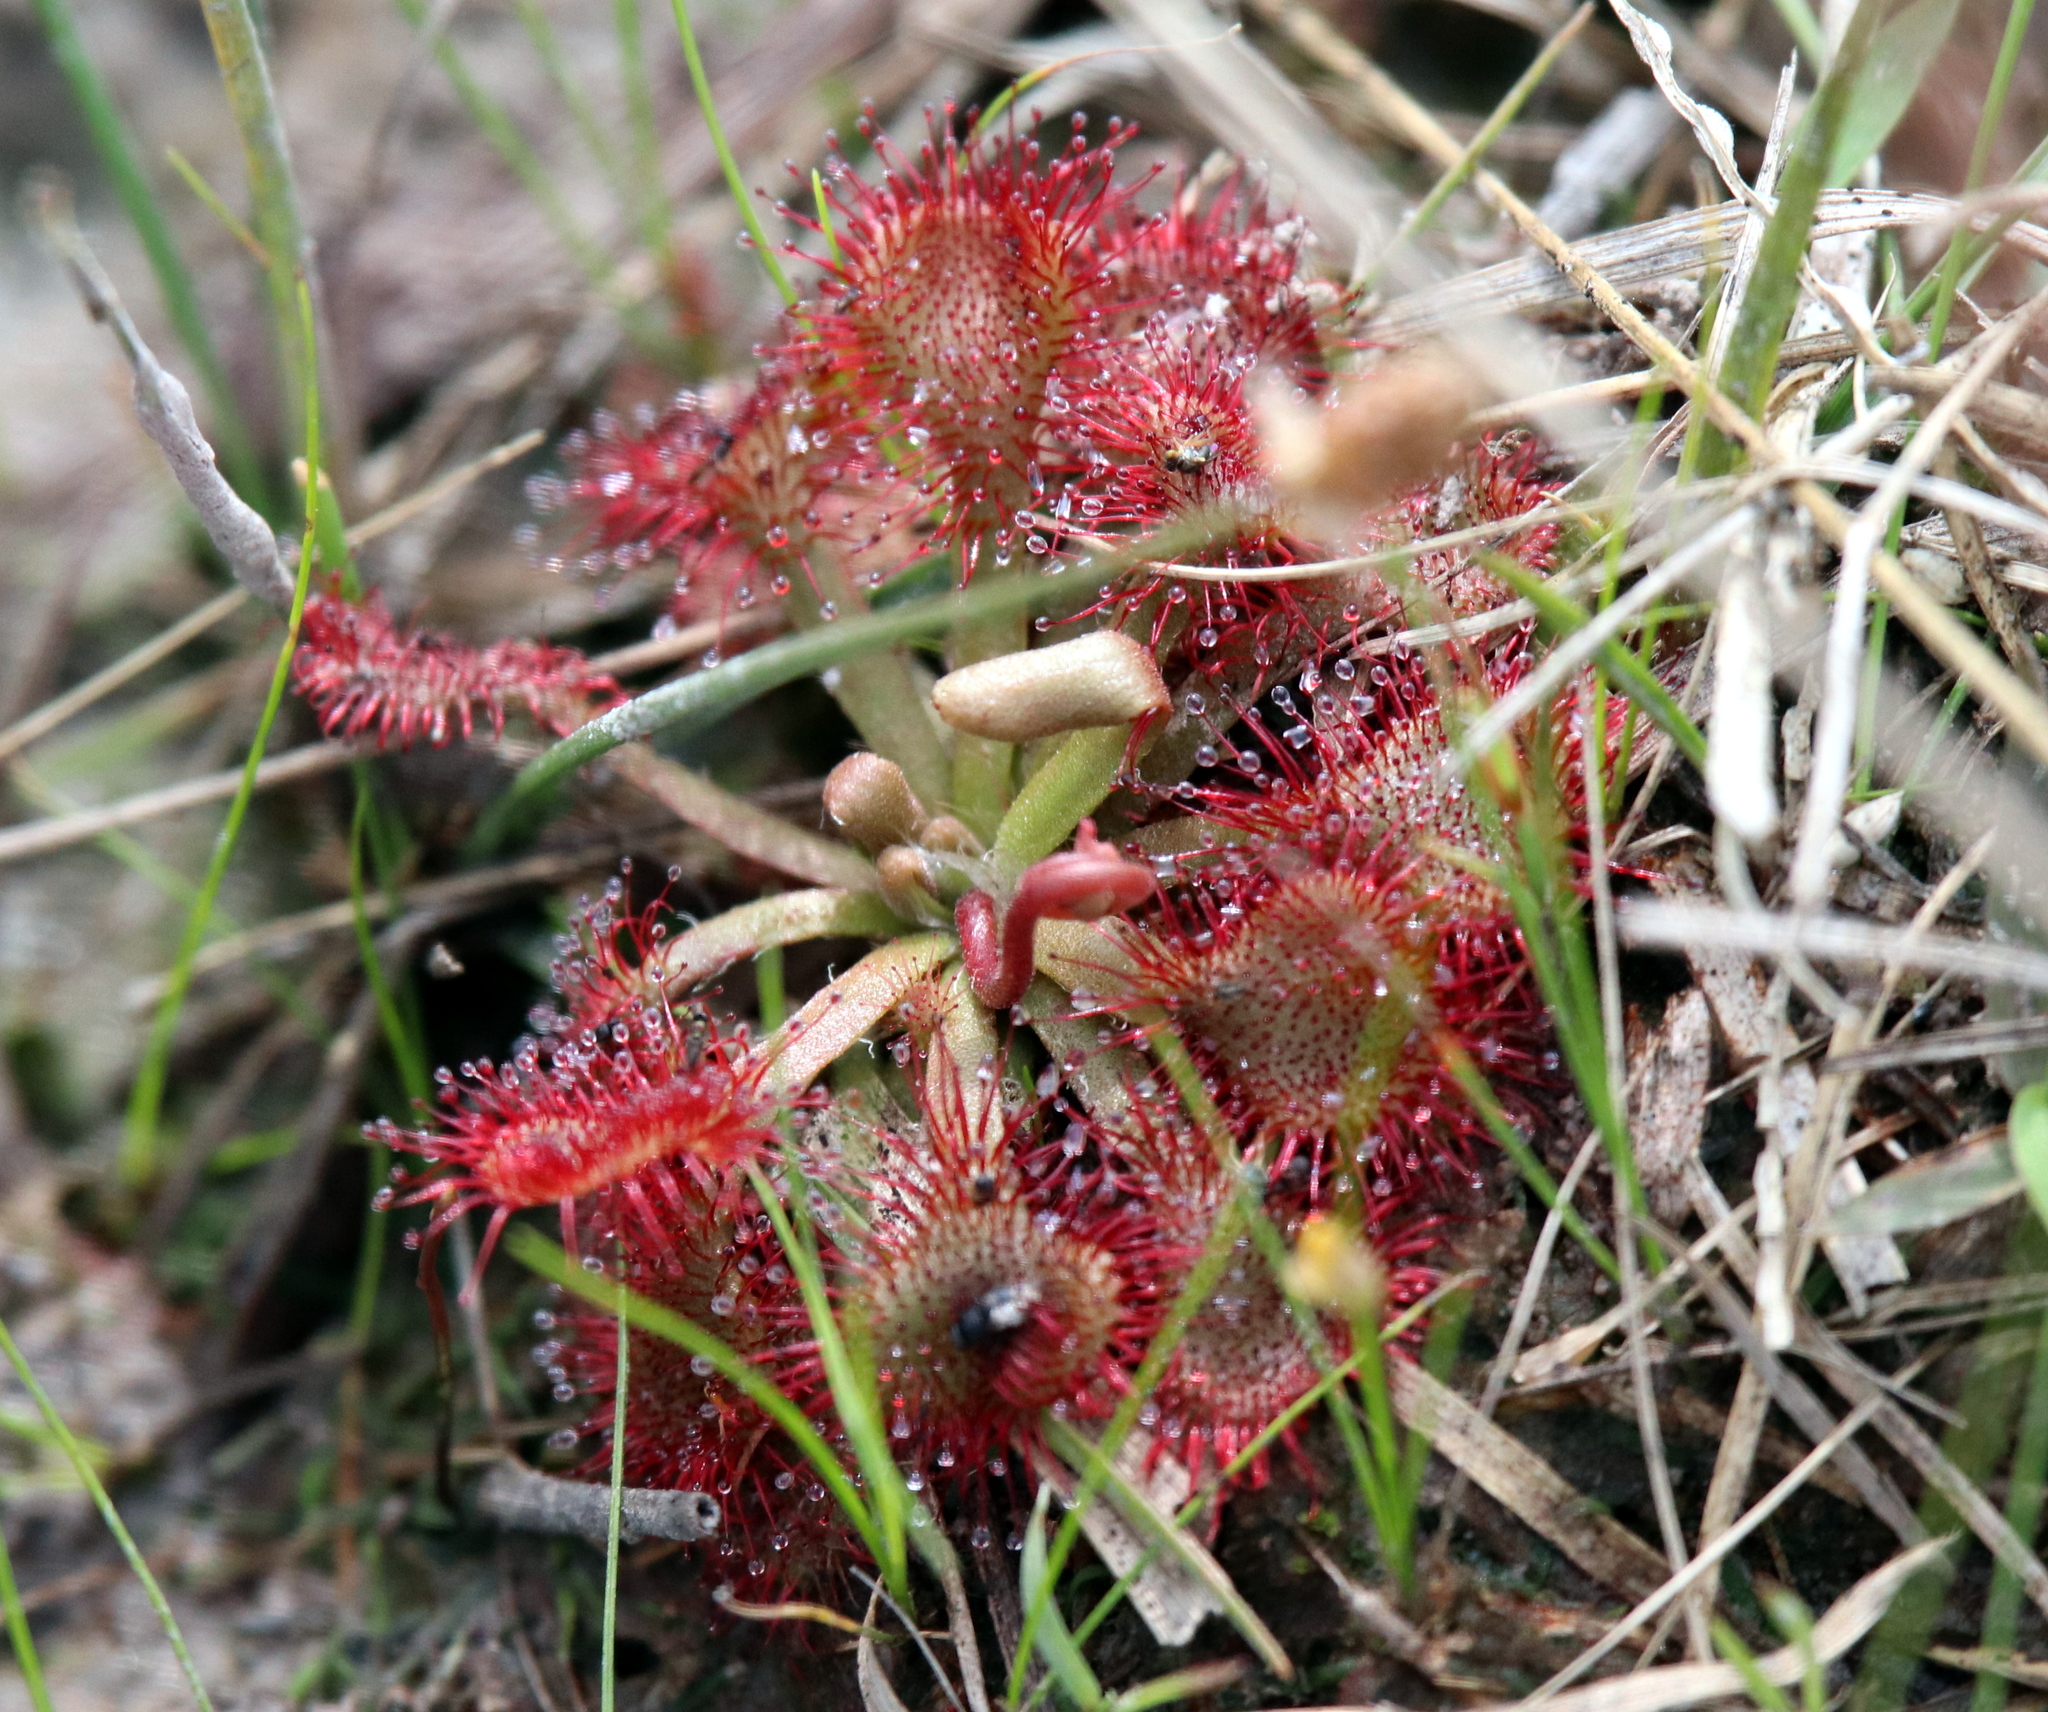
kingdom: Plantae
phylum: Tracheophyta
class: Magnoliopsida
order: Caryophyllales
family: Droseraceae
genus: Drosera
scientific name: Drosera capillaris
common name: Pink sundew
